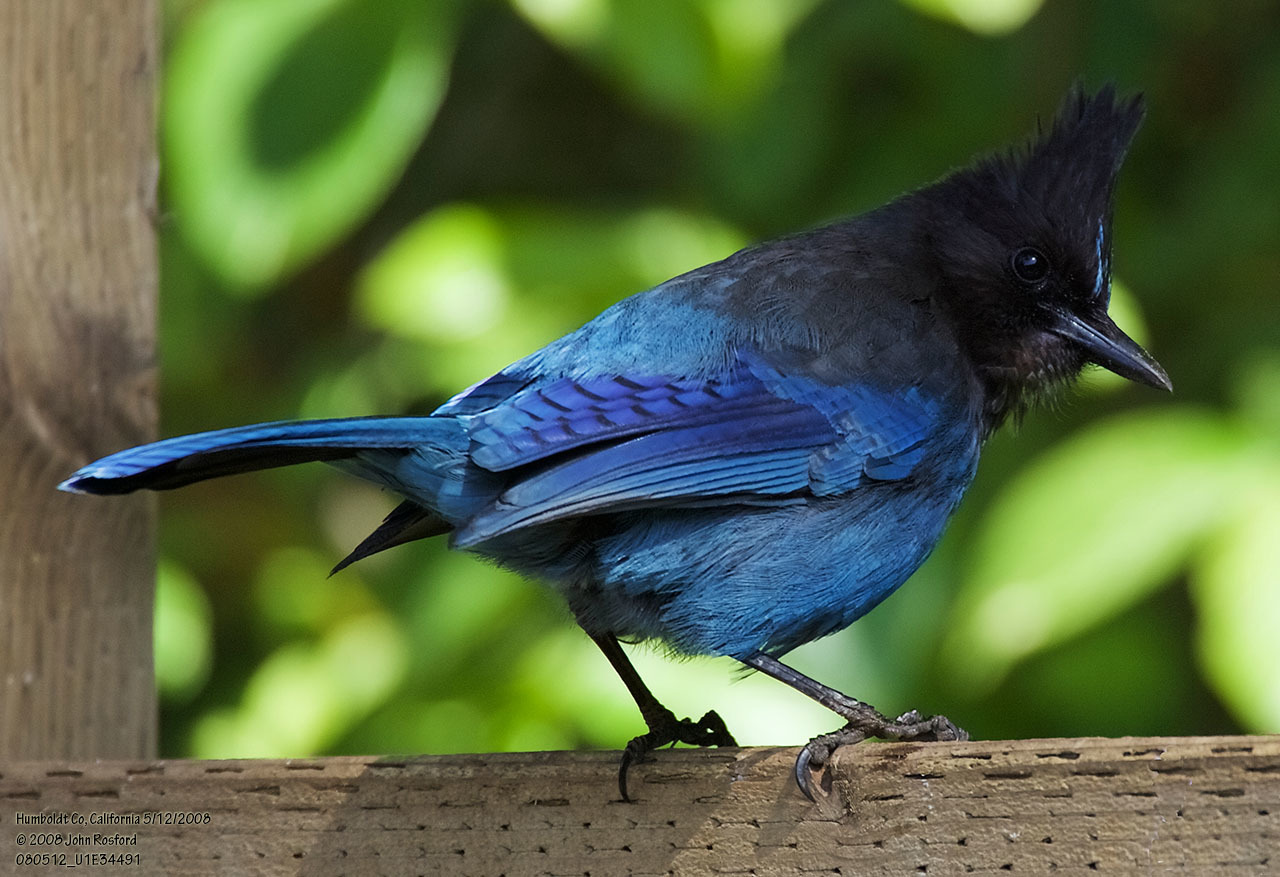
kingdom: Animalia
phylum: Chordata
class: Aves
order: Passeriformes
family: Corvidae
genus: Cyanocitta
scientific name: Cyanocitta stelleri
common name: Steller's jay
